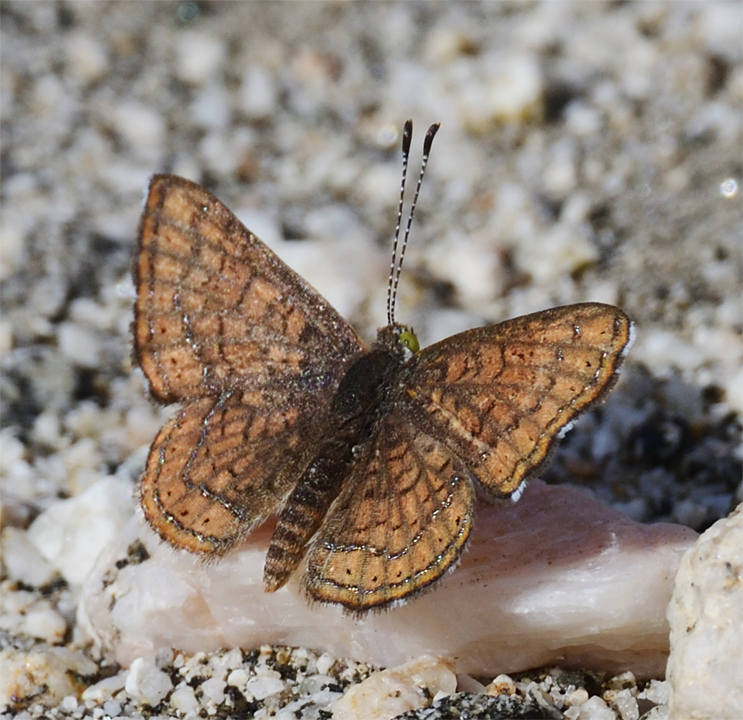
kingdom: Animalia
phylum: Arthropoda
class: Insecta
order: Lepidoptera
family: Lycaenidae
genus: Emesis
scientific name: Emesis wrighti
